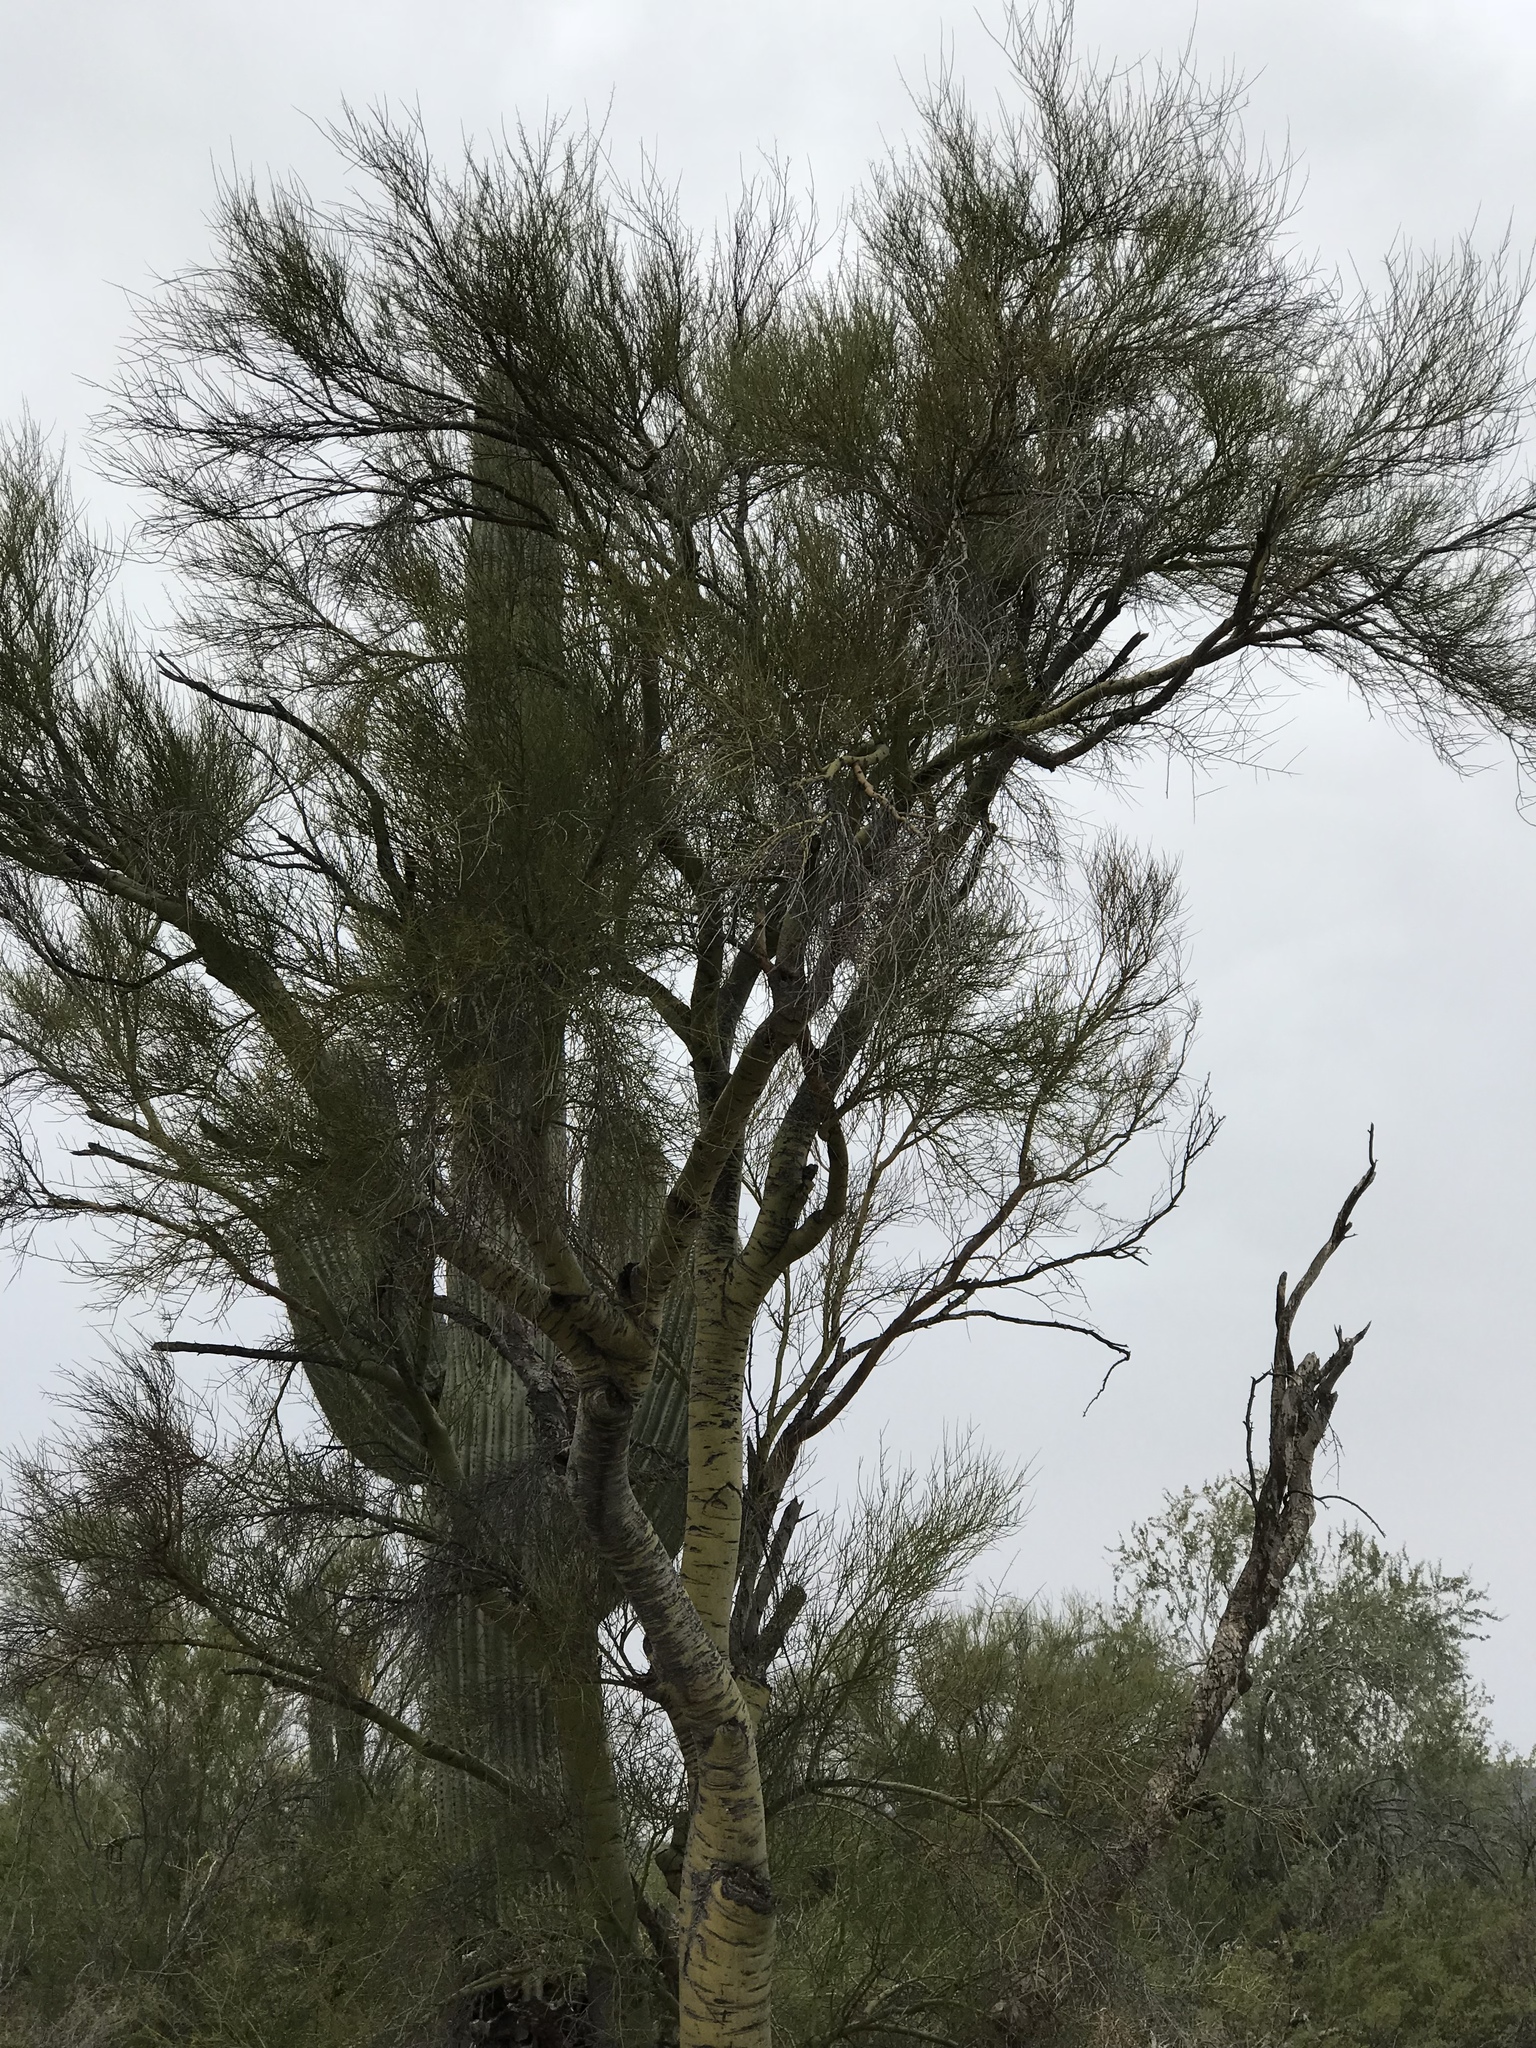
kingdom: Plantae
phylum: Tracheophyta
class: Magnoliopsida
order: Fabales
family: Fabaceae
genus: Parkinsonia
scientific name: Parkinsonia florida
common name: Blue paloverde
